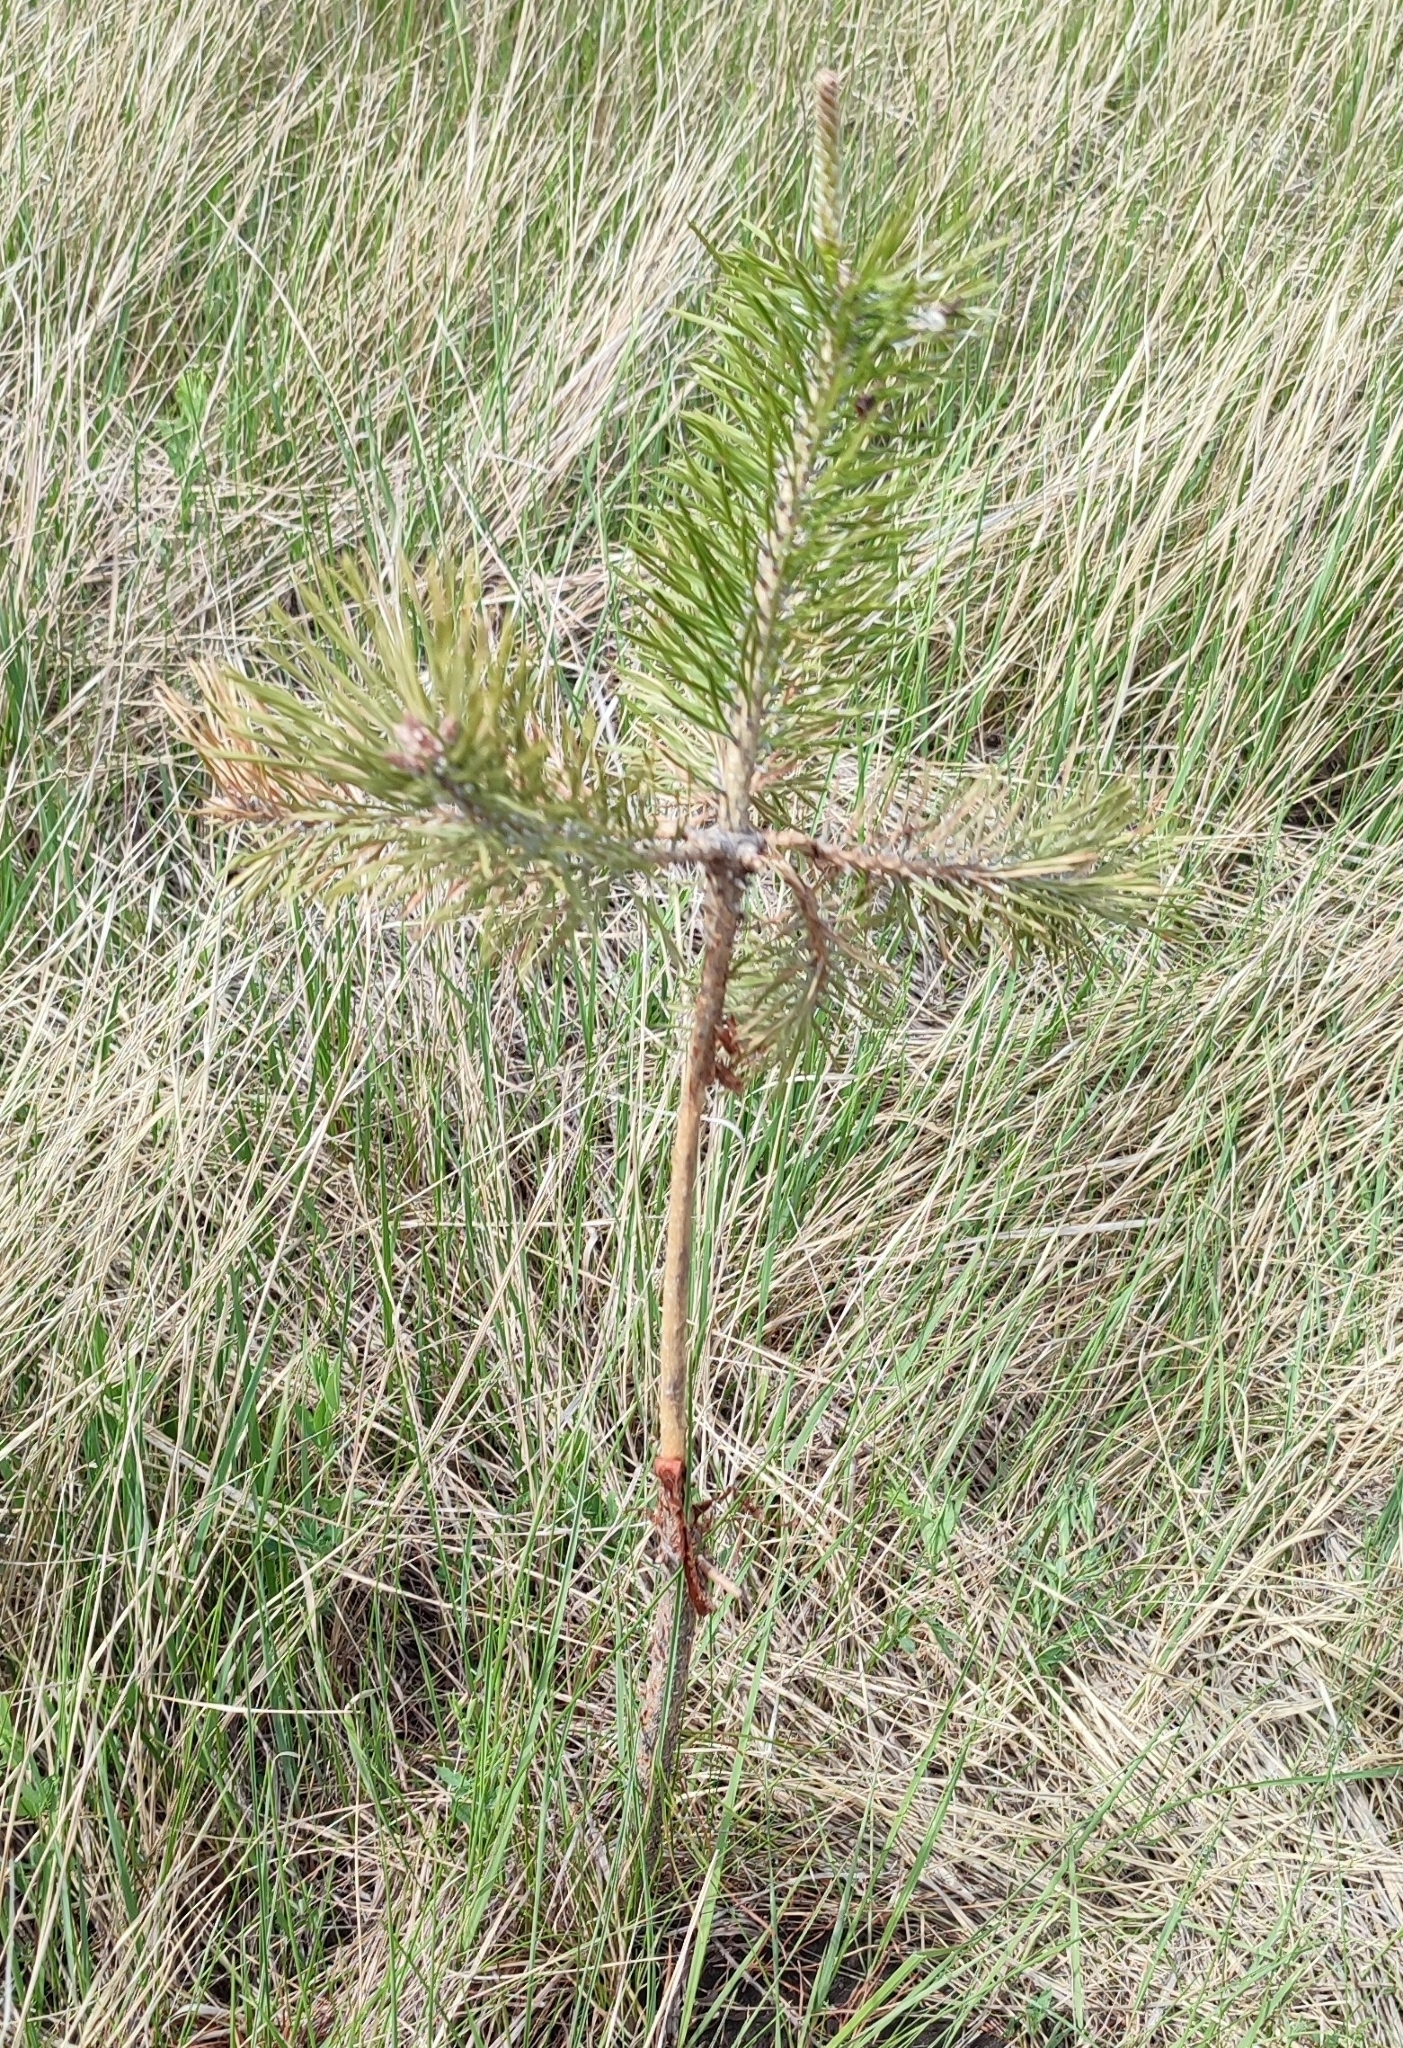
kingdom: Plantae
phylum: Tracheophyta
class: Pinopsida
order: Pinales
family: Pinaceae
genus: Pinus
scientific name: Pinus sylvestris
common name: Scots pine
